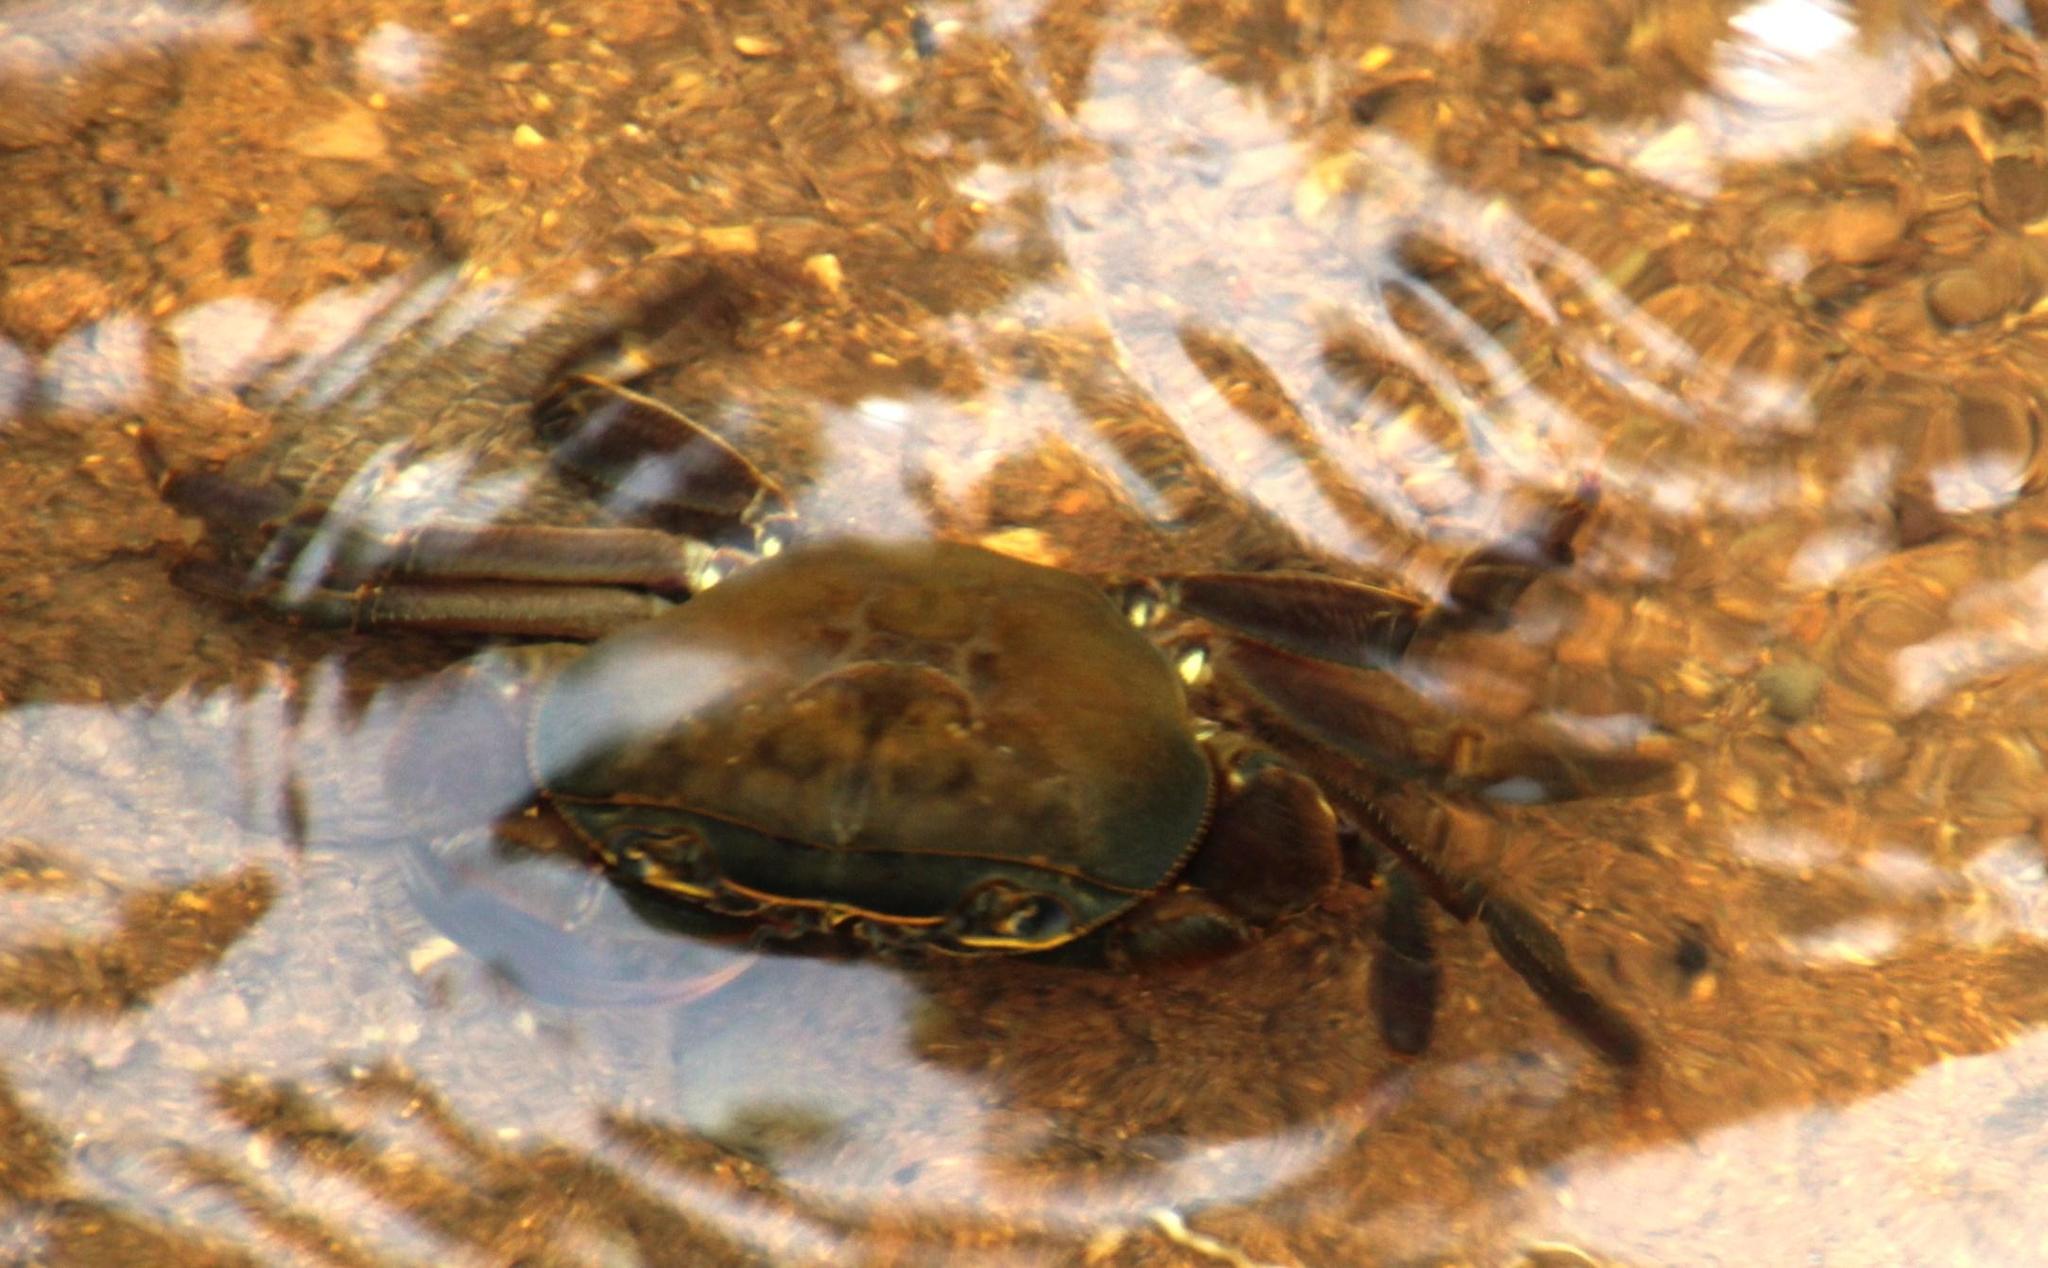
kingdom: Animalia
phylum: Arthropoda
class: Malacostraca
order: Decapoda
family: Potamonautidae
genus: Potamonautes
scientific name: Potamonautes sidneyi
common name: Natal river crab
